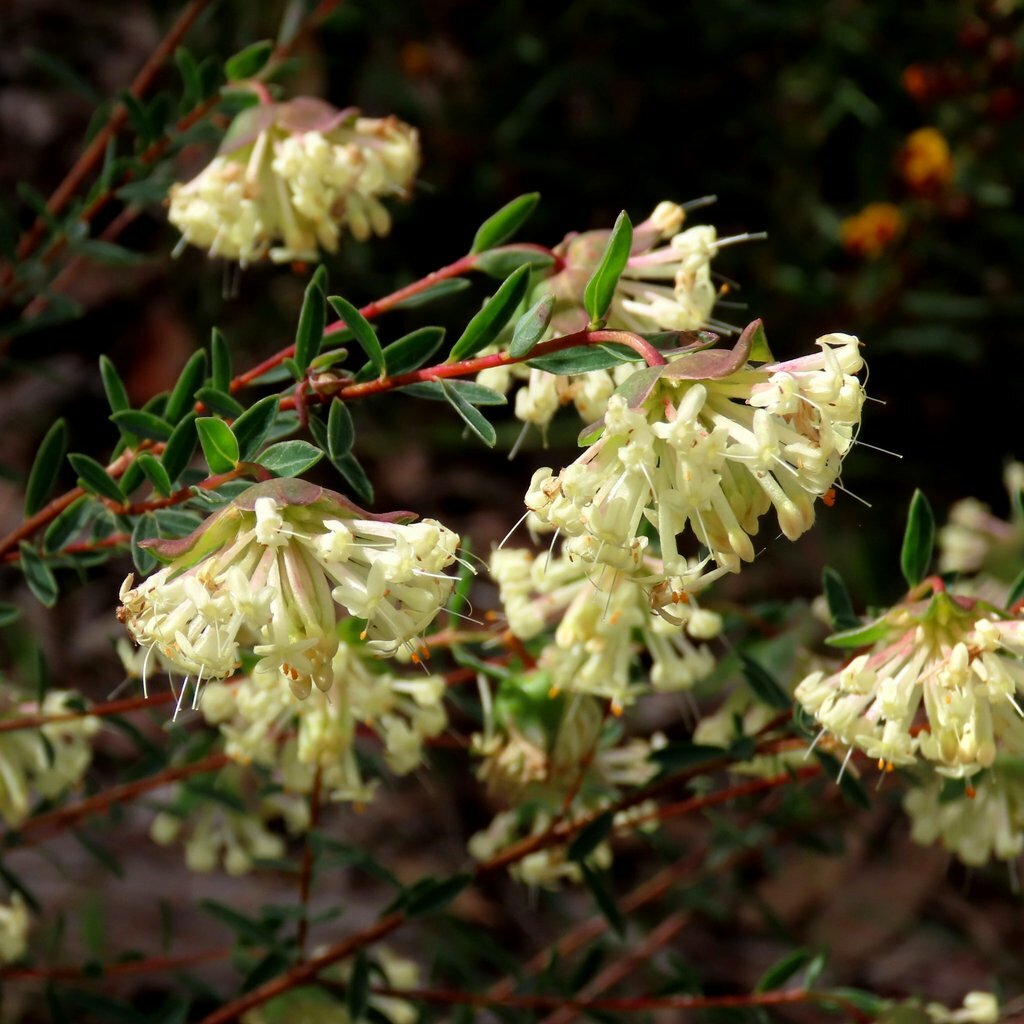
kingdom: Plantae
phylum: Tracheophyta
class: Magnoliopsida
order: Malvales
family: Thymelaeaceae
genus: Pimelea
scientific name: Pimelea linifolia
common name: Queen-of-the-bush
